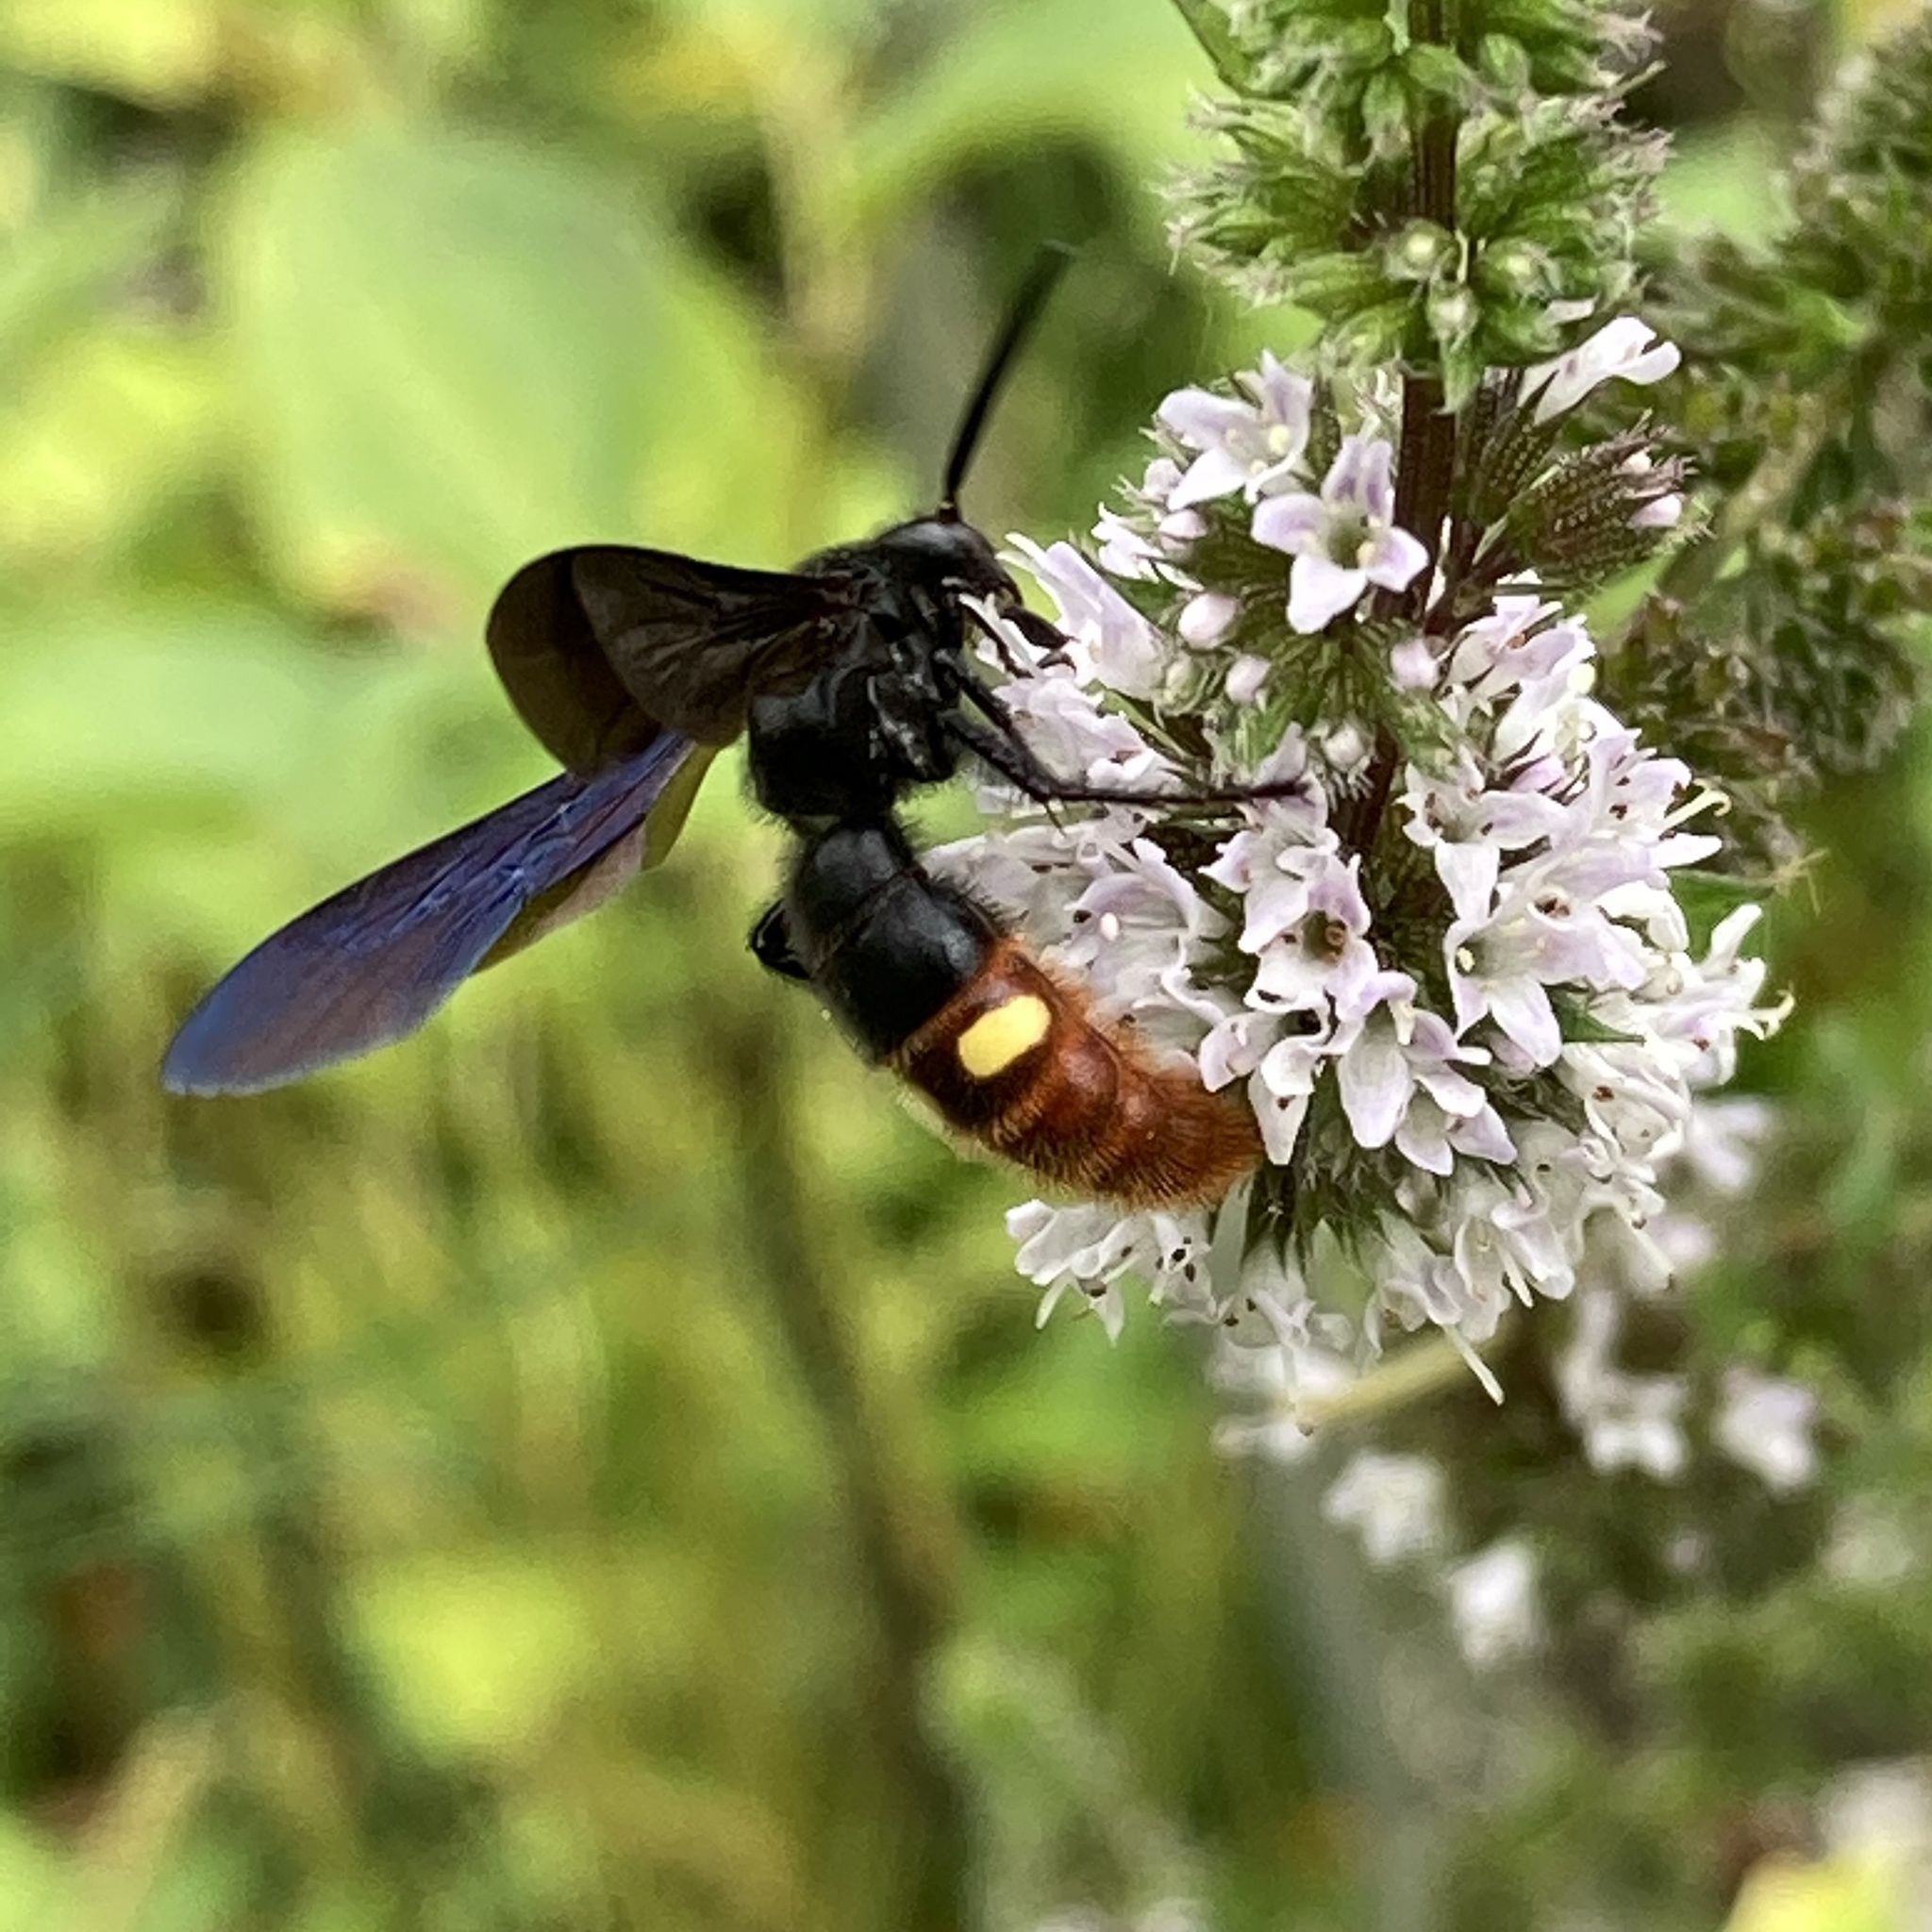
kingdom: Animalia
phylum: Arthropoda
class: Insecta
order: Hymenoptera
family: Scoliidae
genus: Scolia
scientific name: Scolia dubia
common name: Blue-winged scoliid wasp
